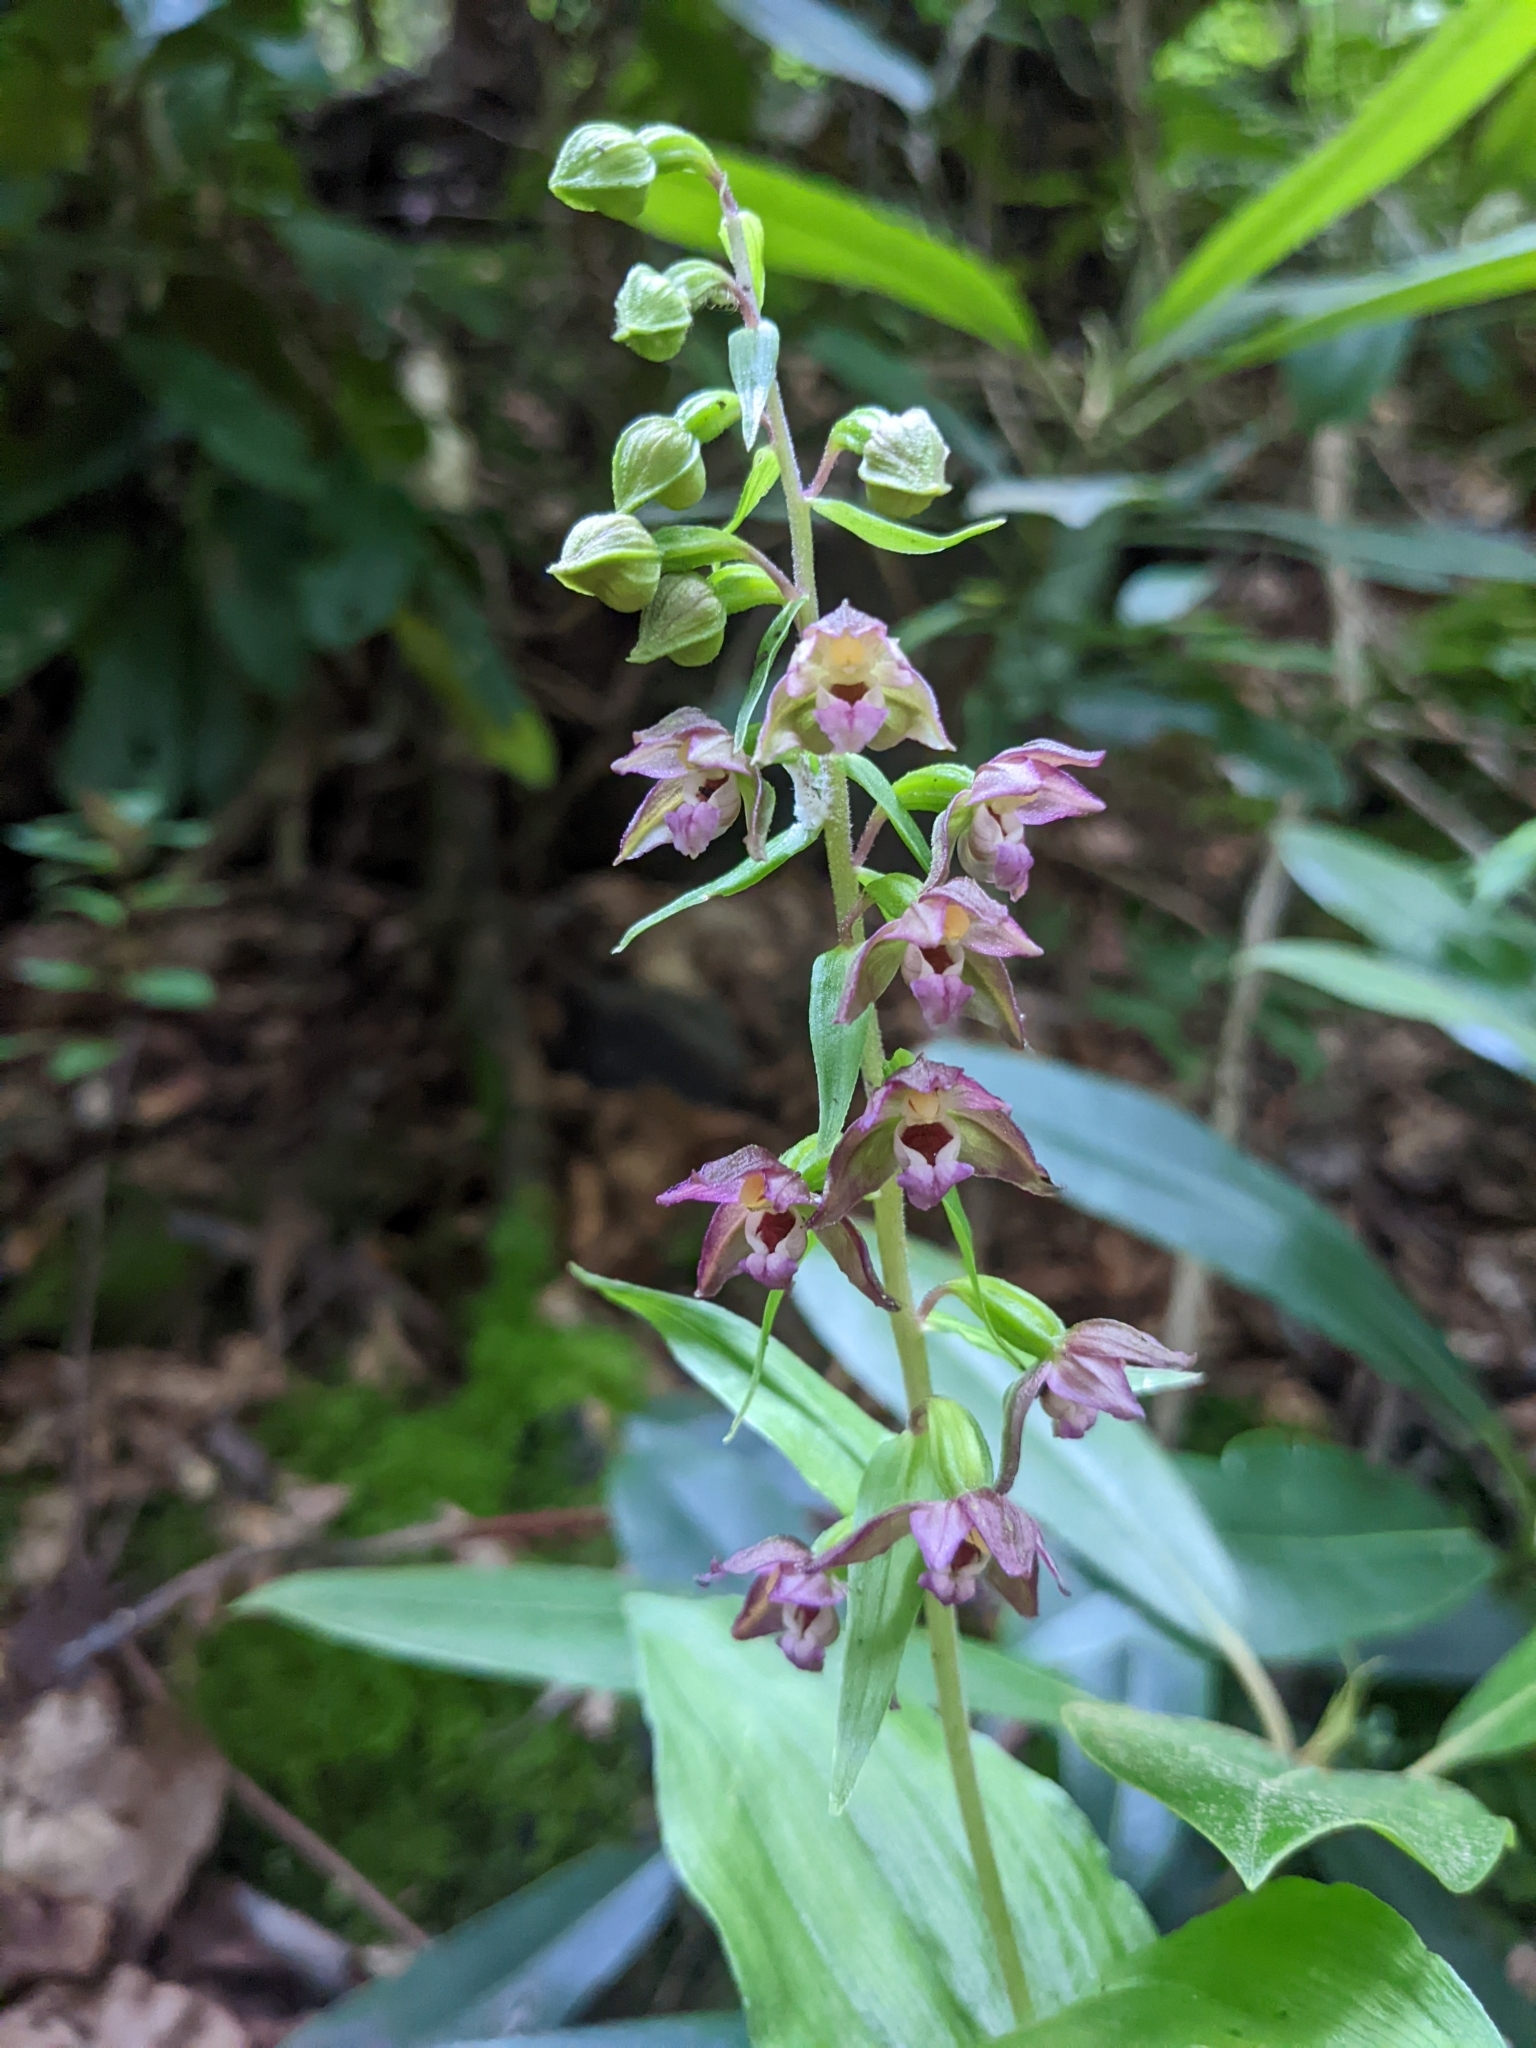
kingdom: Plantae
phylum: Tracheophyta
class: Liliopsida
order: Asparagales
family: Orchidaceae
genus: Epipactis
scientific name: Epipactis helleborine
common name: Broad-leaved helleborine
